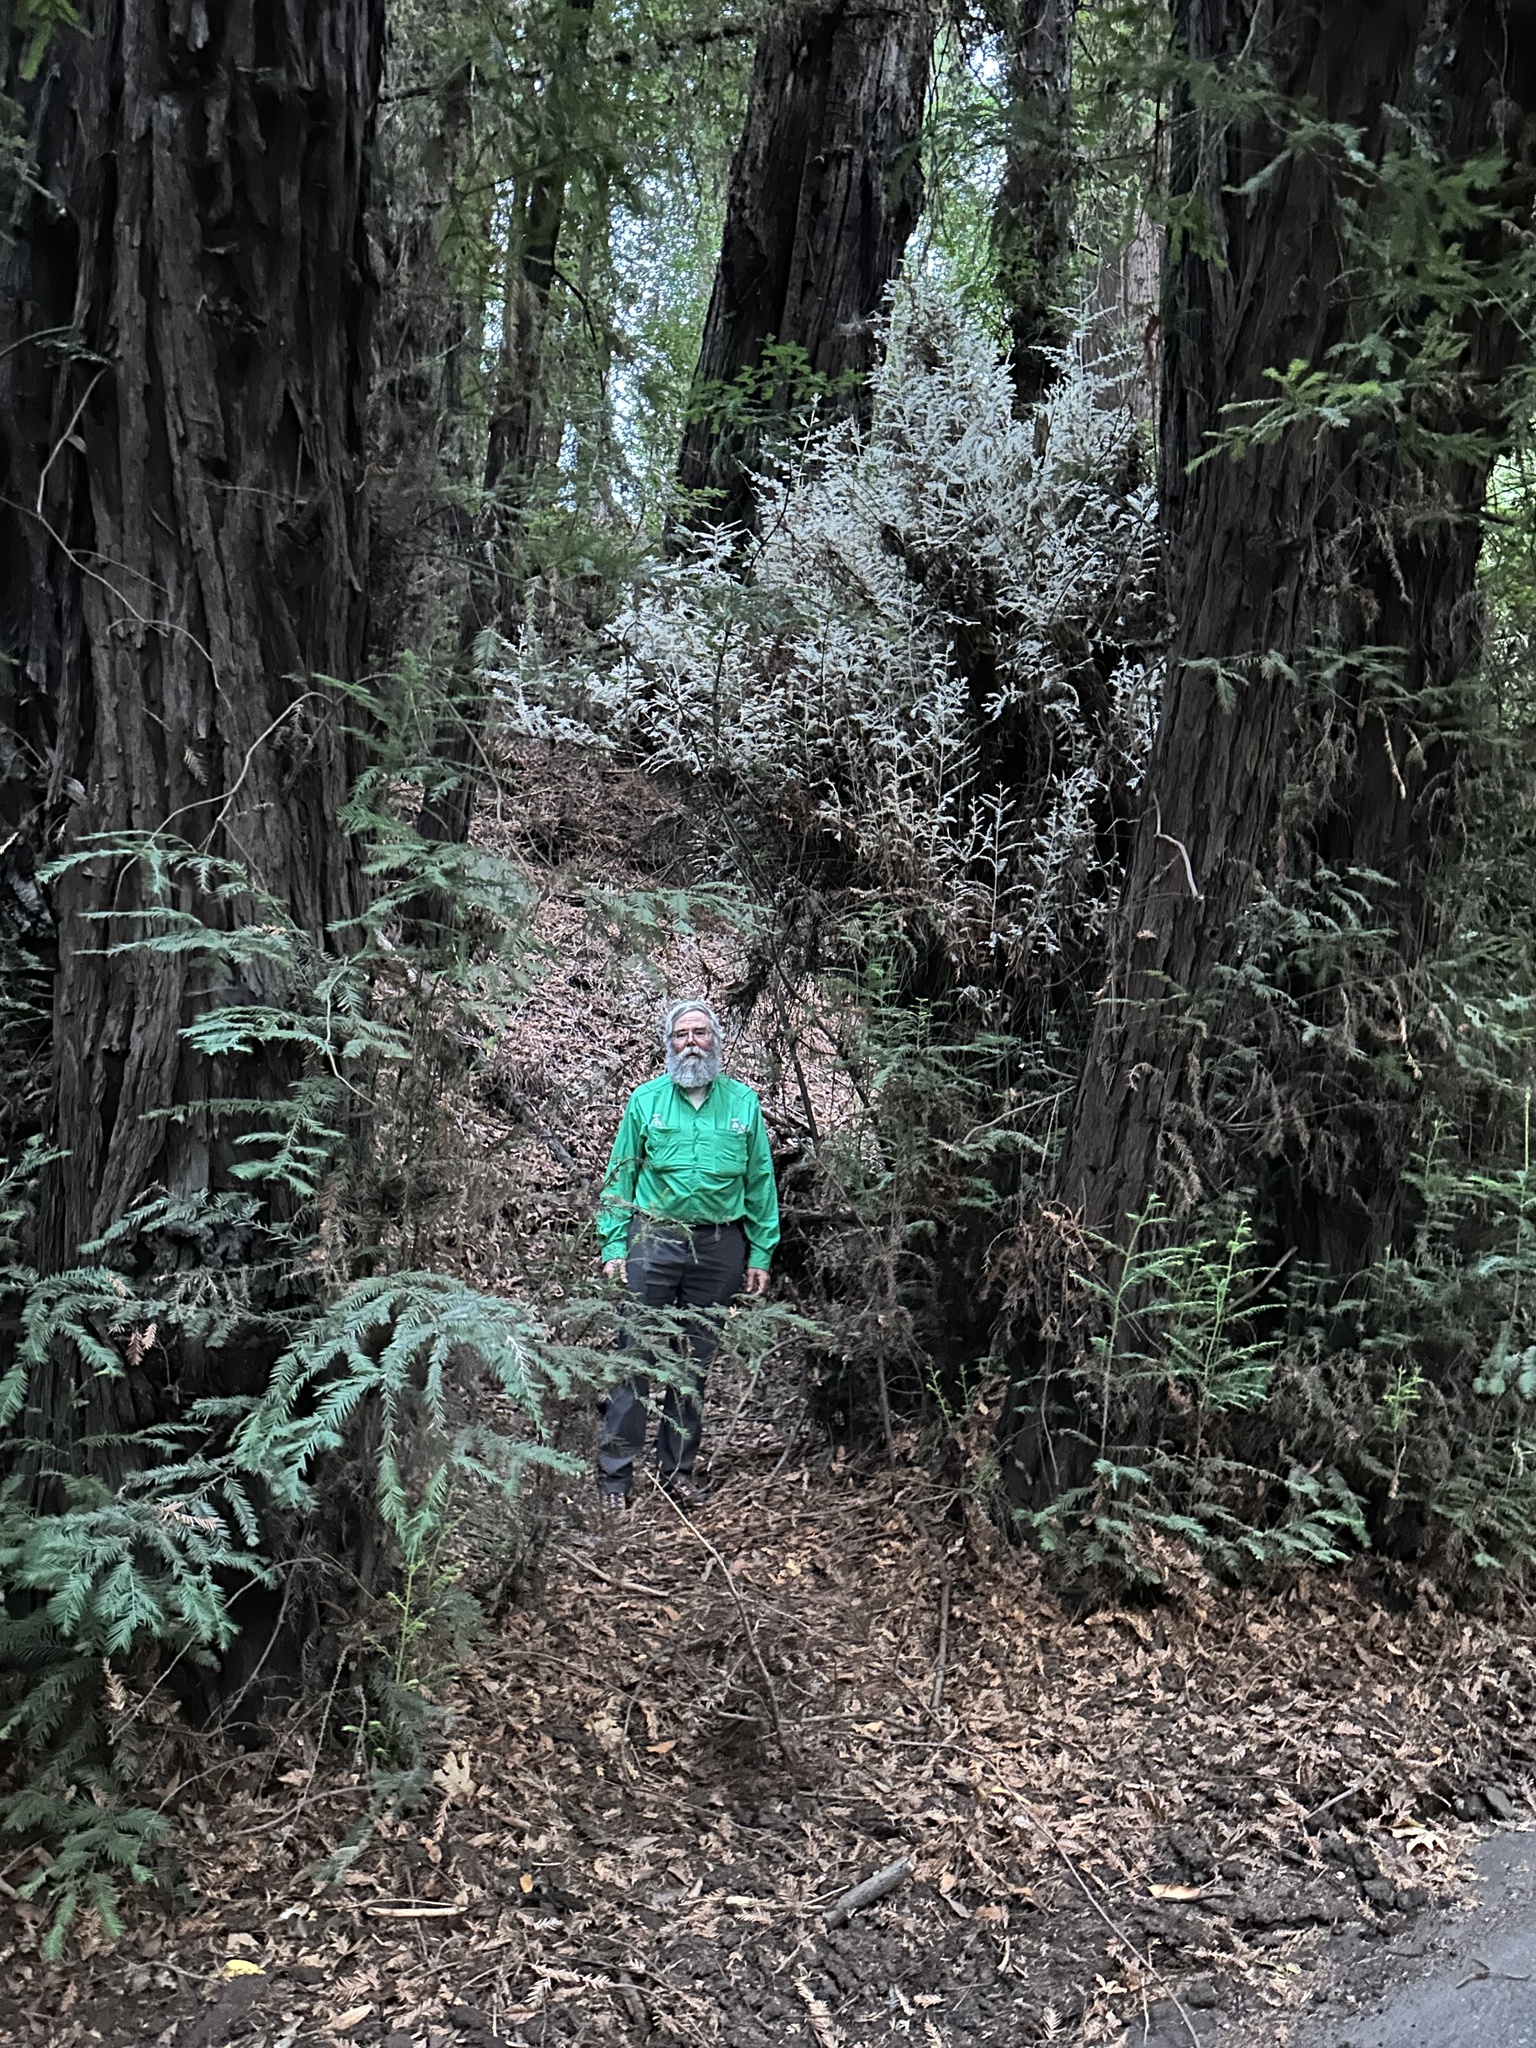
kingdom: Plantae
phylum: Tracheophyta
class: Pinopsida
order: Pinales
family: Cupressaceae
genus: Sequoia
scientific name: Sequoia sempervirens
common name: Coast redwood
